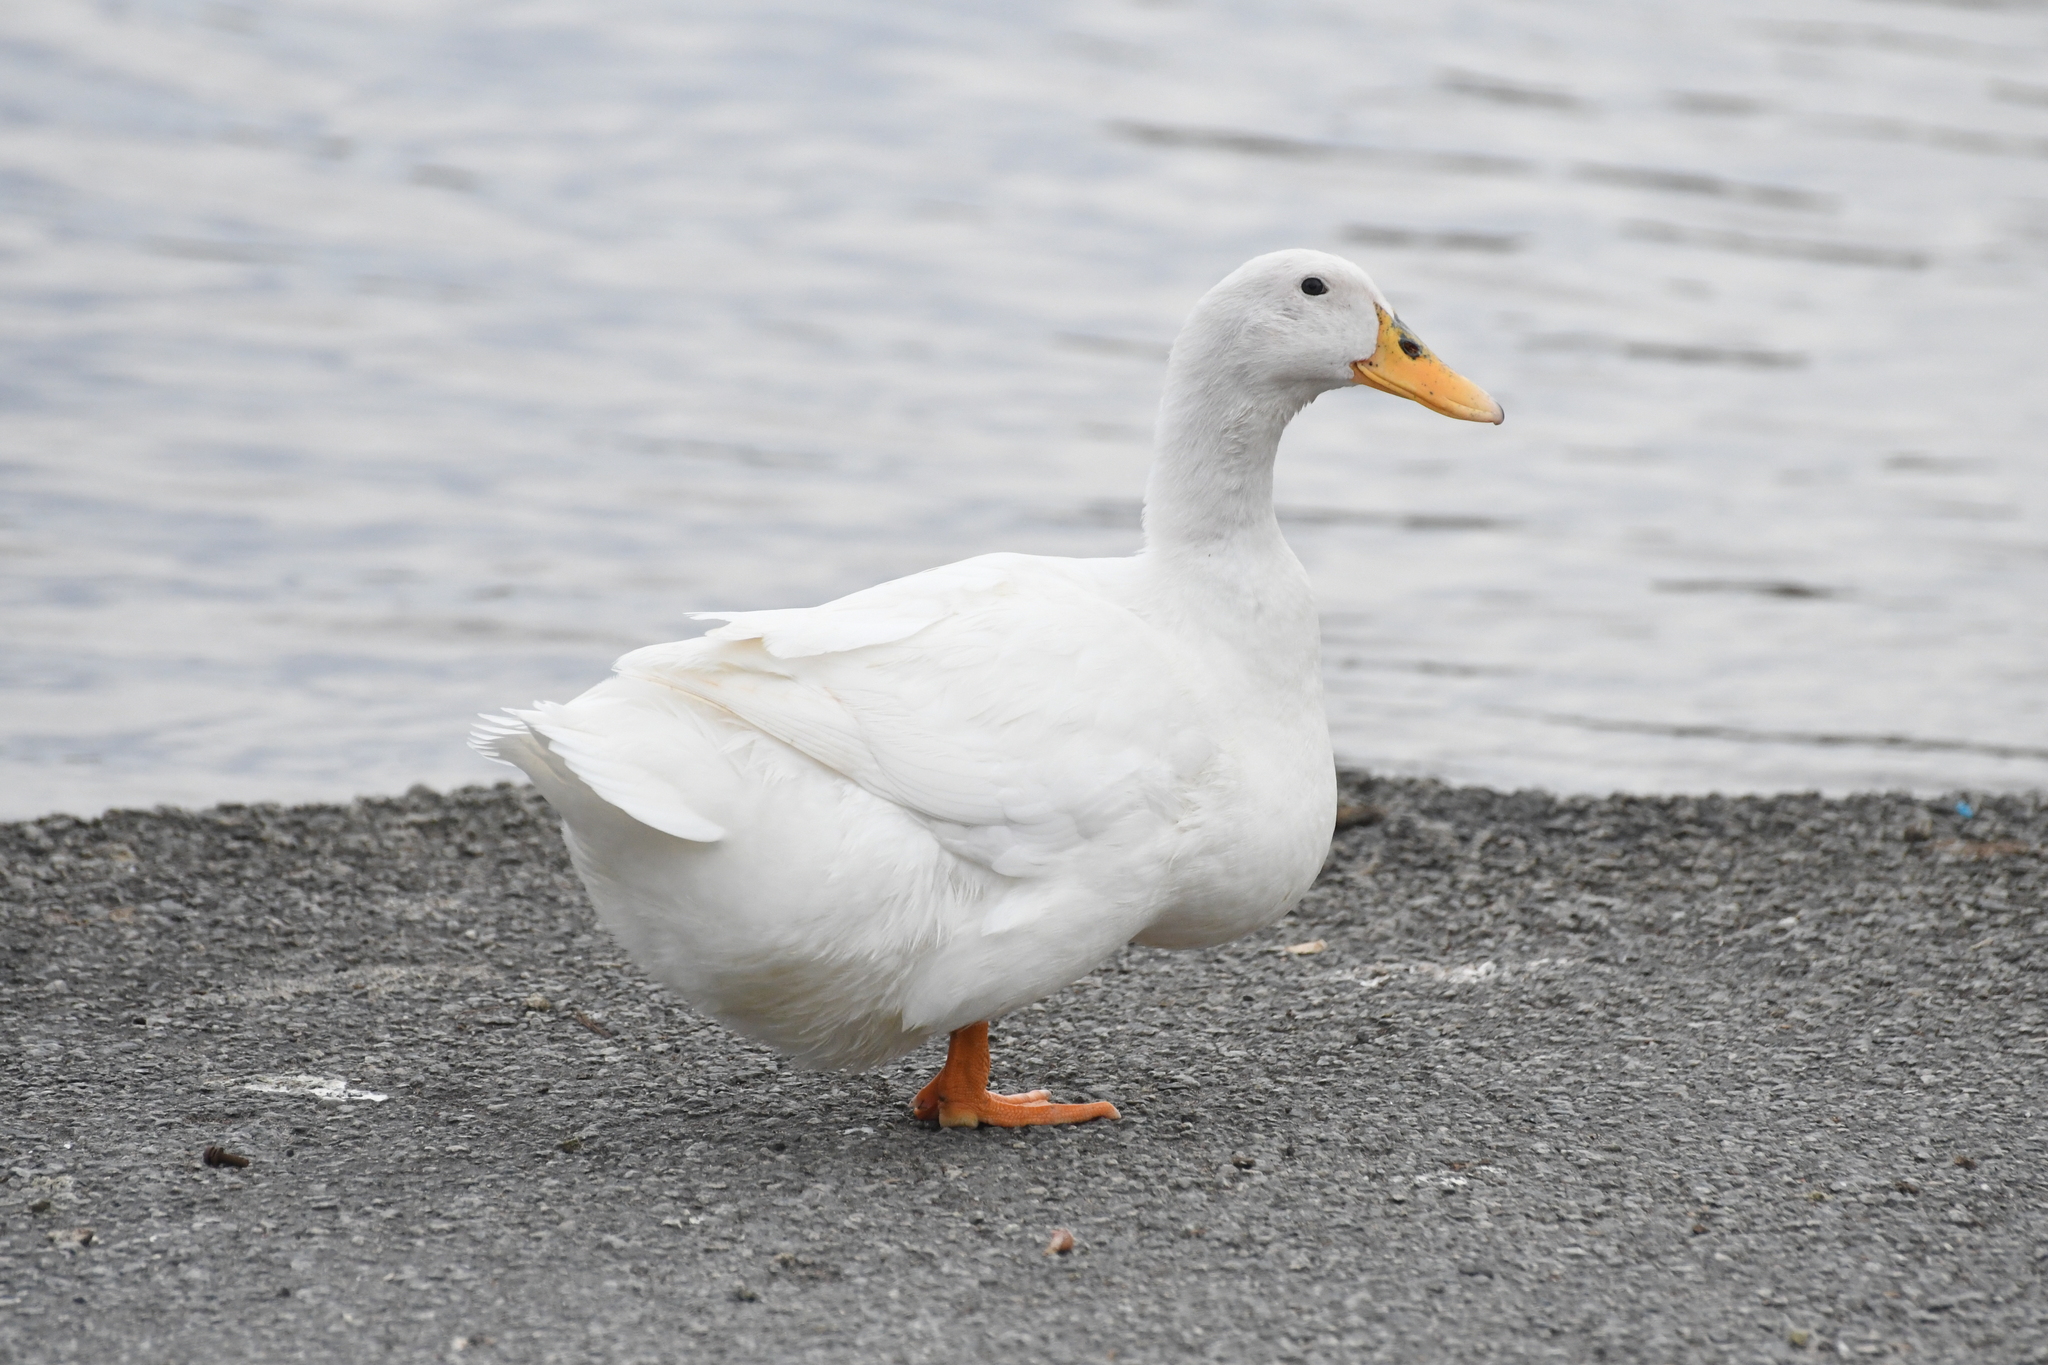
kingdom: Animalia
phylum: Chordata
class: Aves
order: Anseriformes
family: Anatidae
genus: Anas
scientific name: Anas platyrhynchos
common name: Mallard
